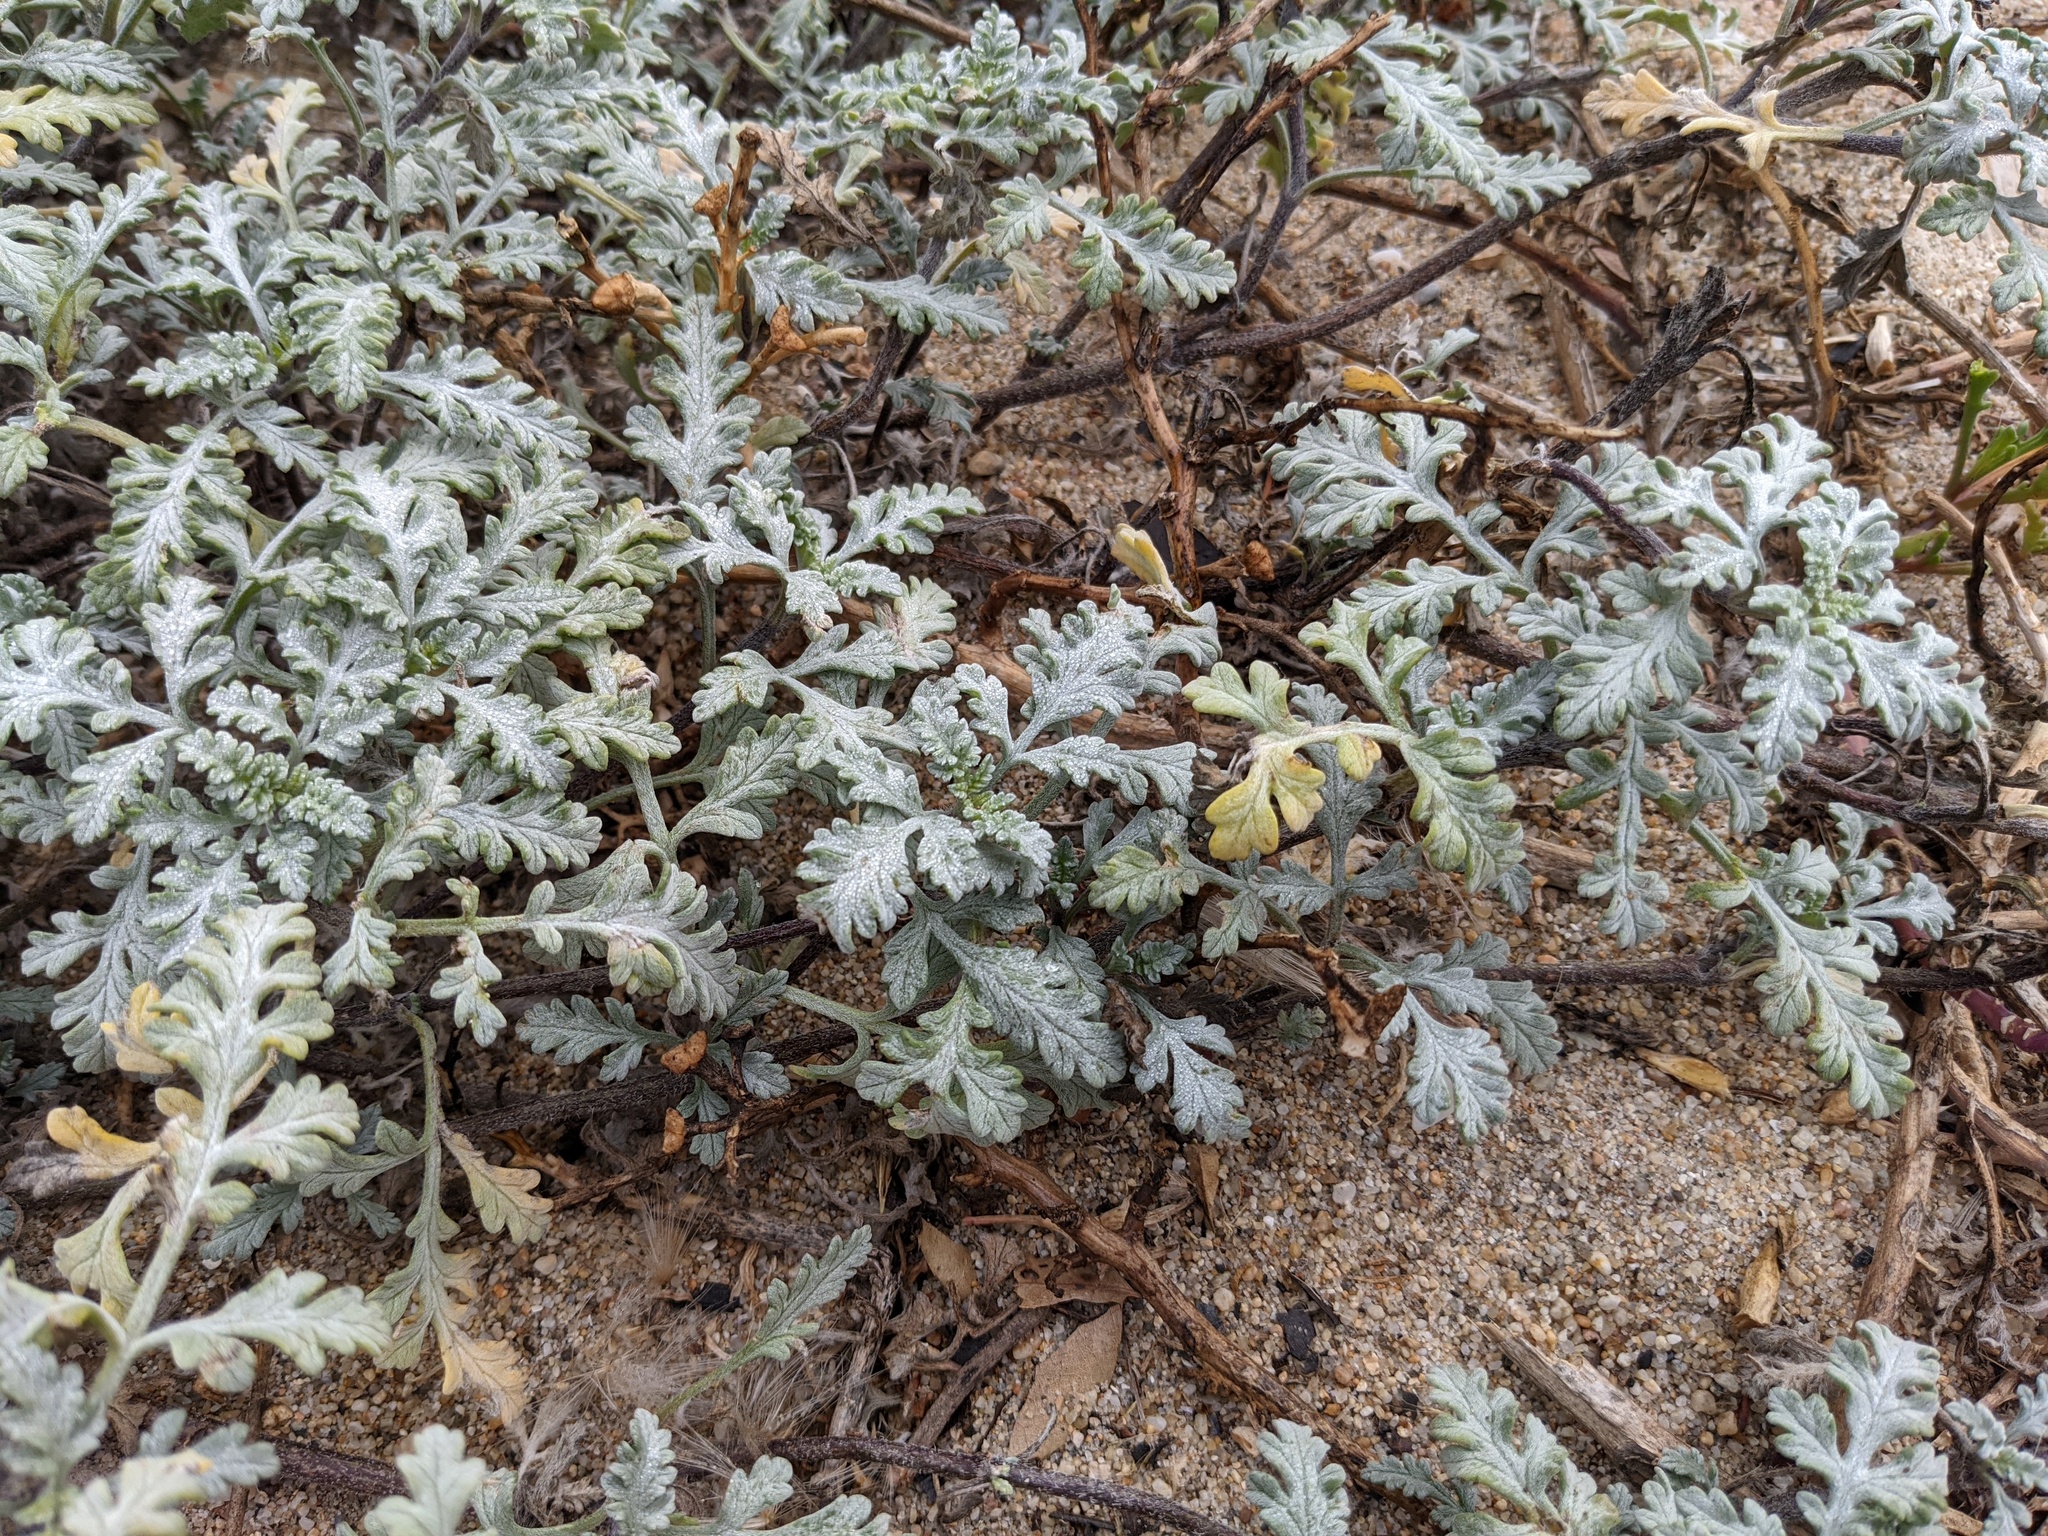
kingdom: Plantae
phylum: Tracheophyta
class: Magnoliopsida
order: Asterales
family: Asteraceae
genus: Ambrosia
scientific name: Ambrosia chamissonis
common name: Beachbur
